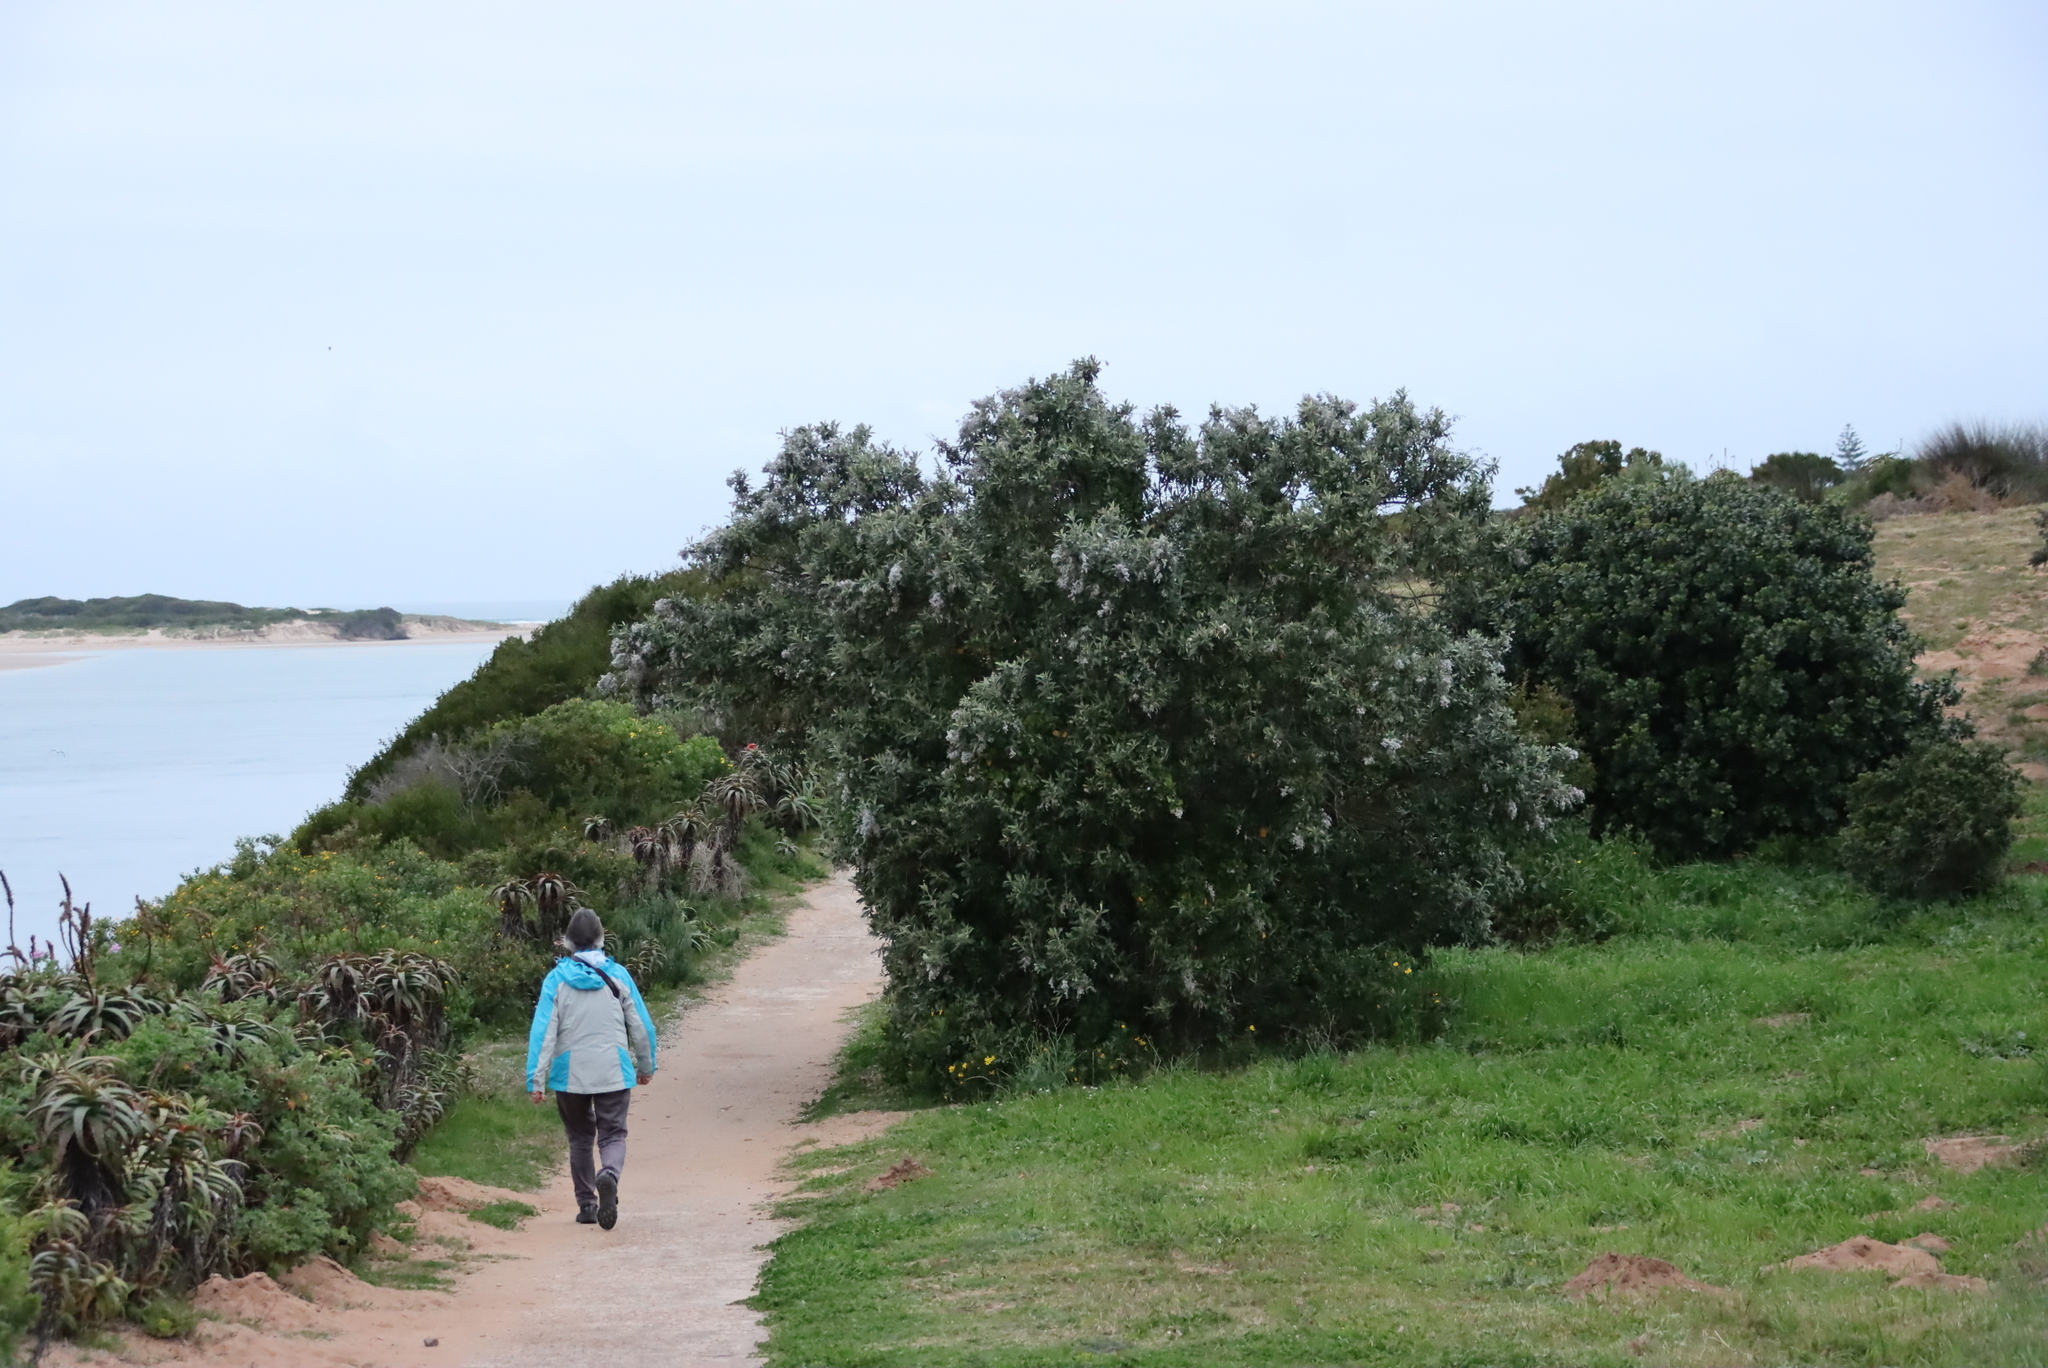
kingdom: Plantae
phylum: Tracheophyta
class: Magnoliopsida
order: Asterales
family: Asteraceae
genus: Tarchonanthus
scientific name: Tarchonanthus littoralis
